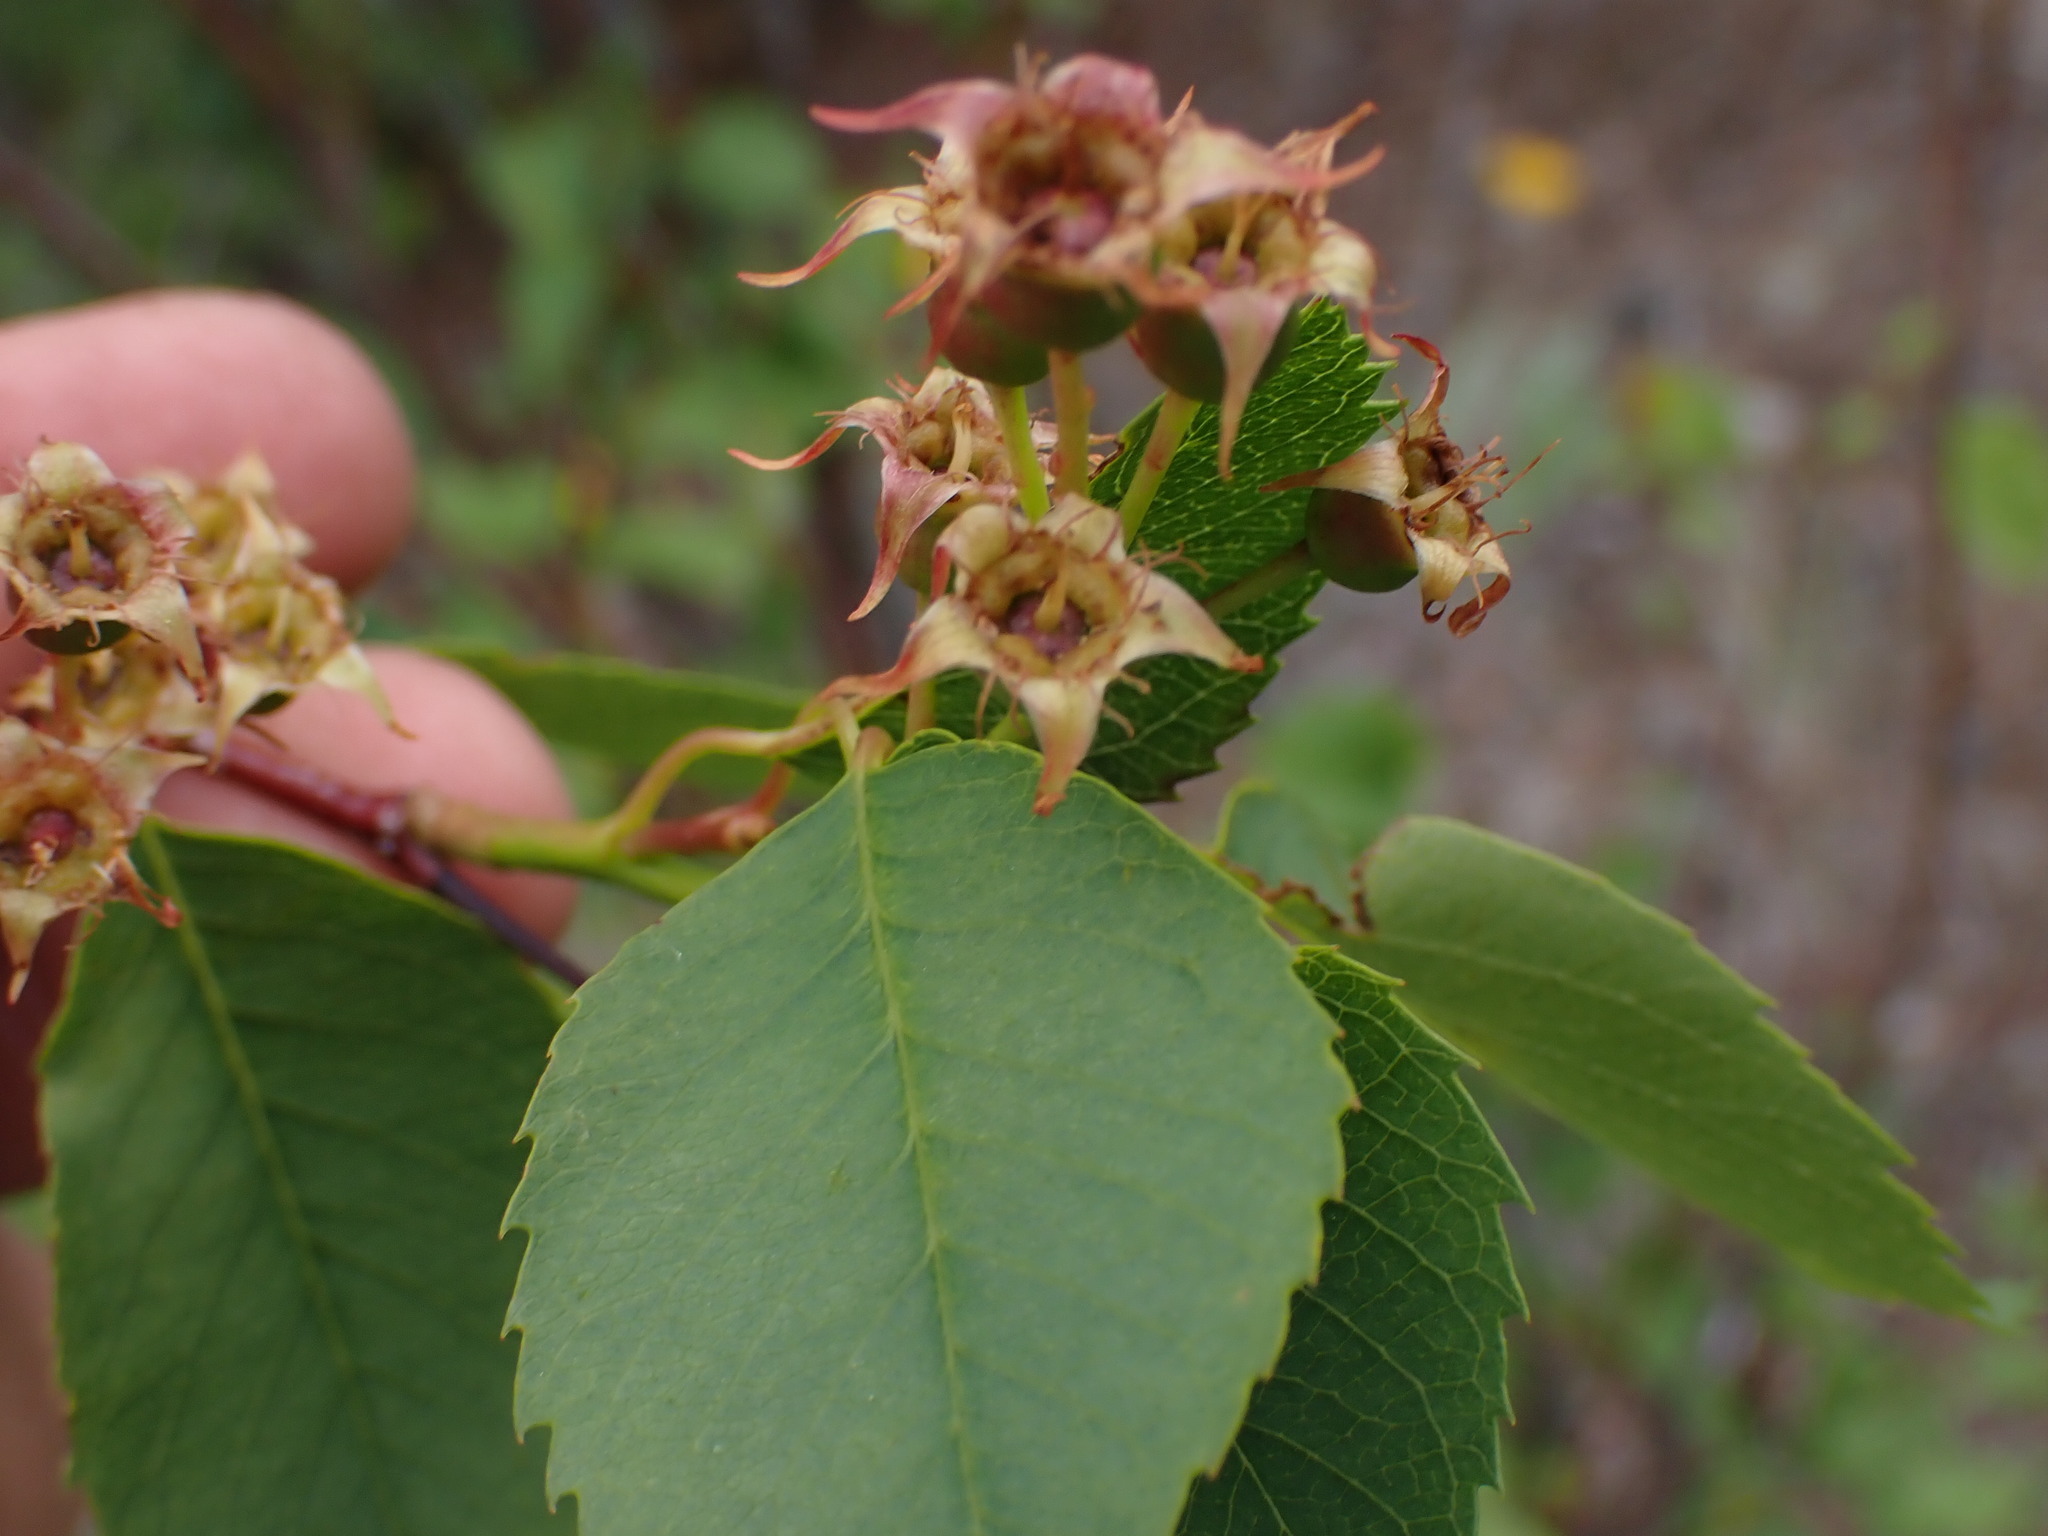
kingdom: Plantae
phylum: Tracheophyta
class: Magnoliopsida
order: Rosales
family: Rosaceae
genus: Amelanchier
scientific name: Amelanchier alnifolia
